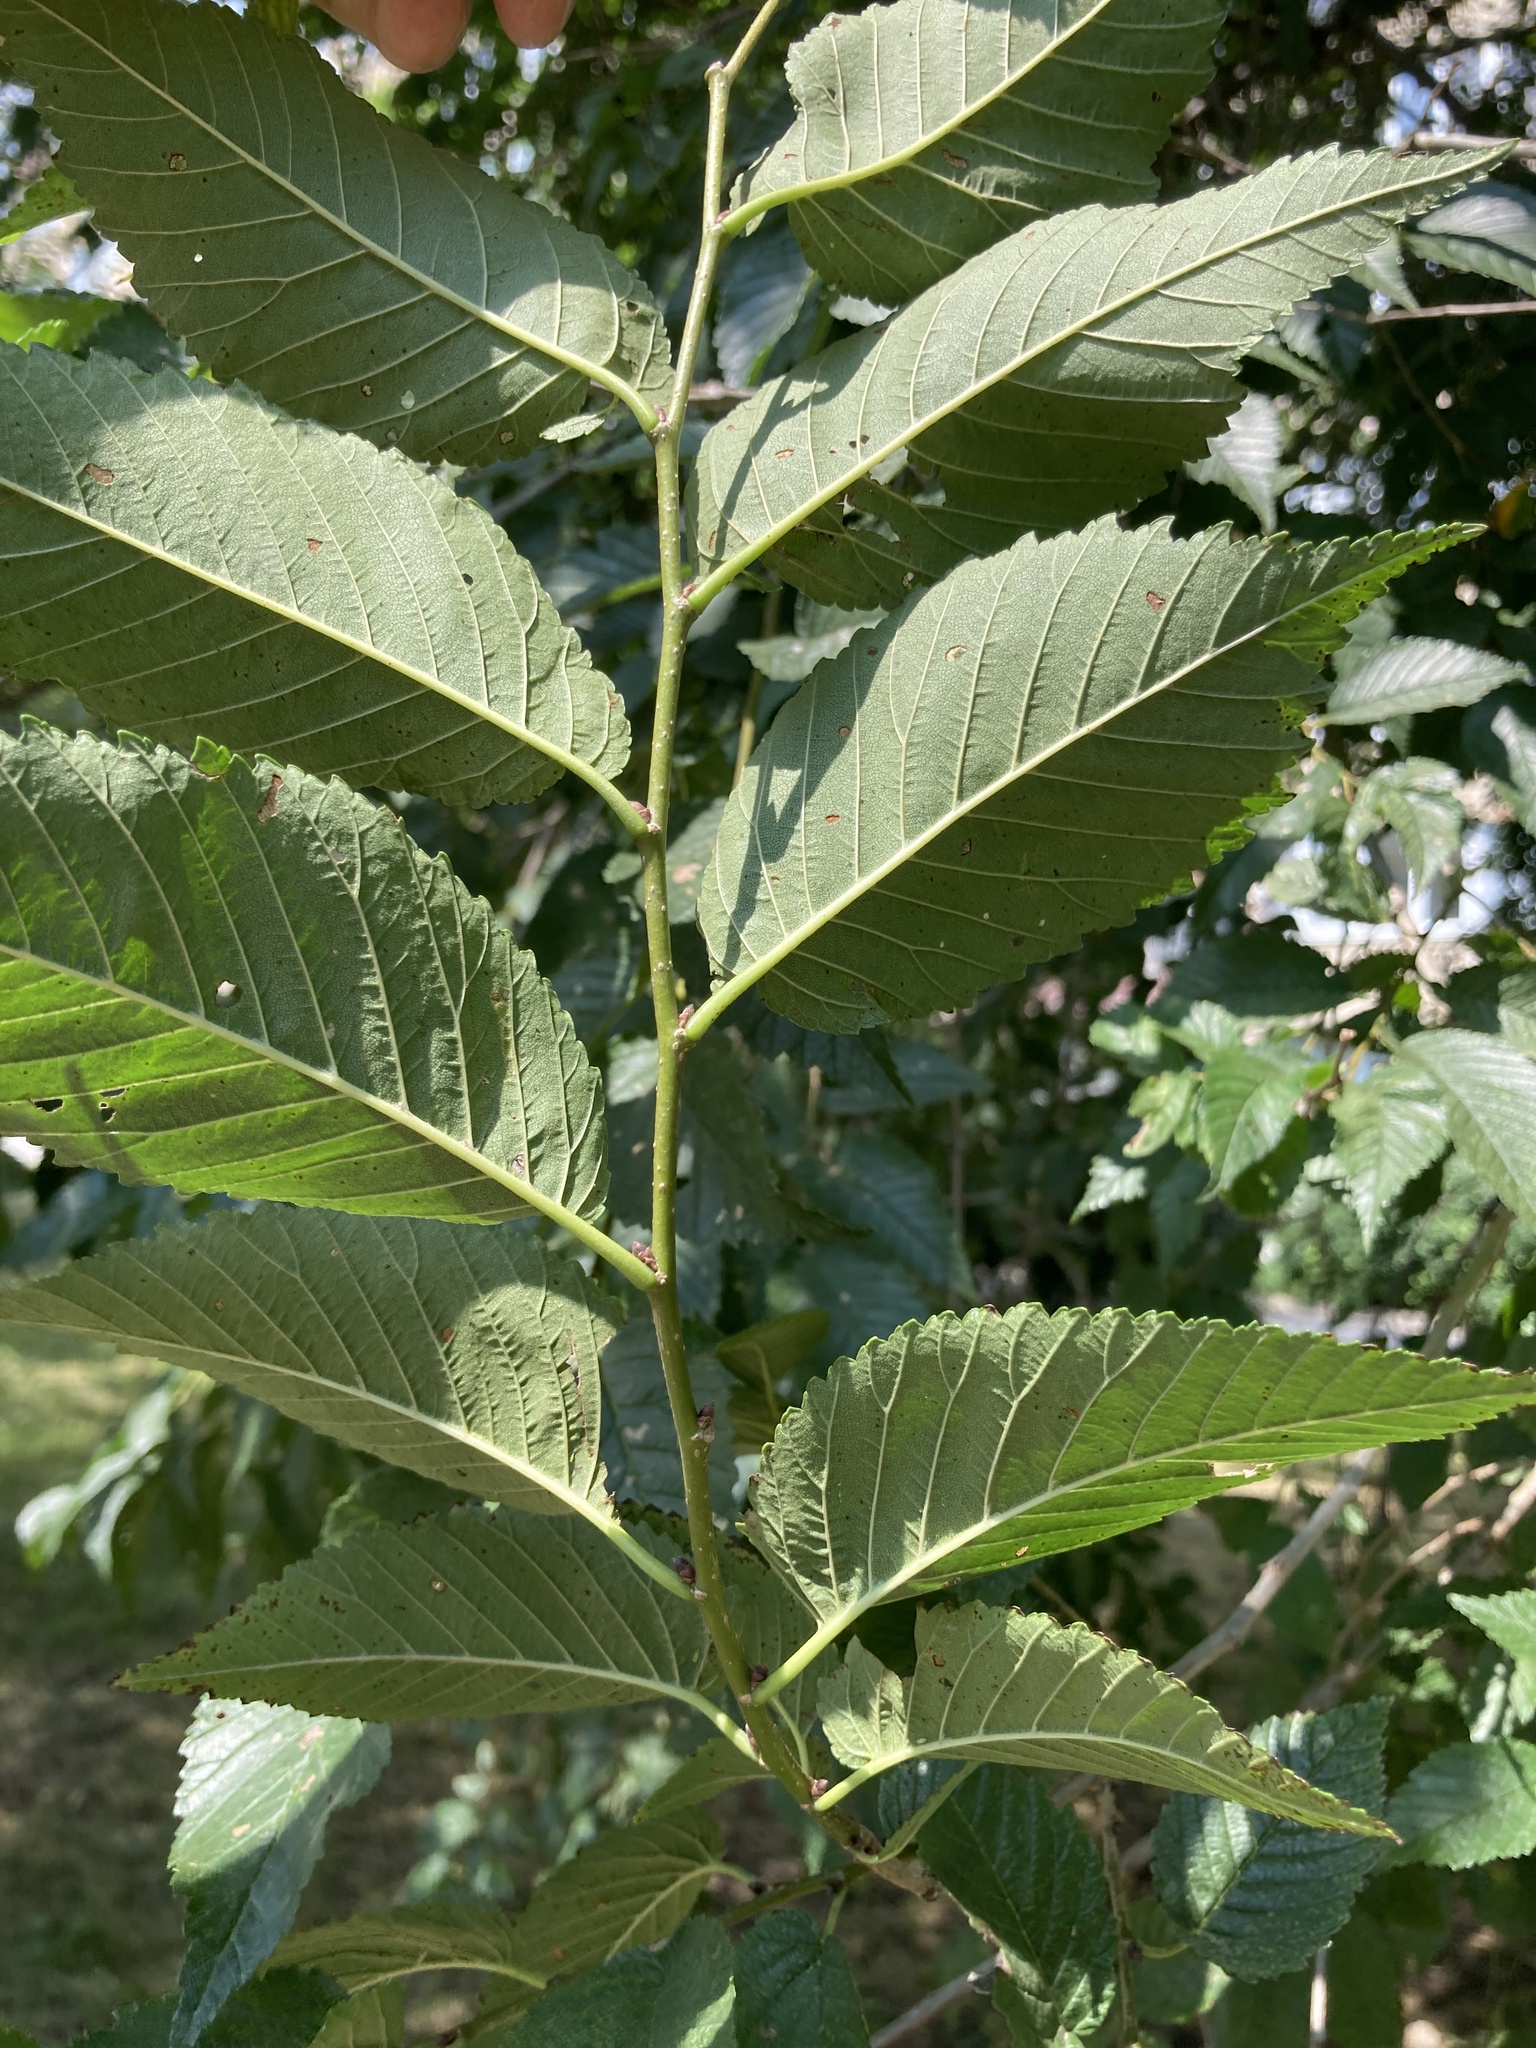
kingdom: Plantae
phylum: Tracheophyta
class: Magnoliopsida
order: Rosales
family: Ulmaceae
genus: Ulmus
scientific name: Ulmus pumila
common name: Siberian elm
